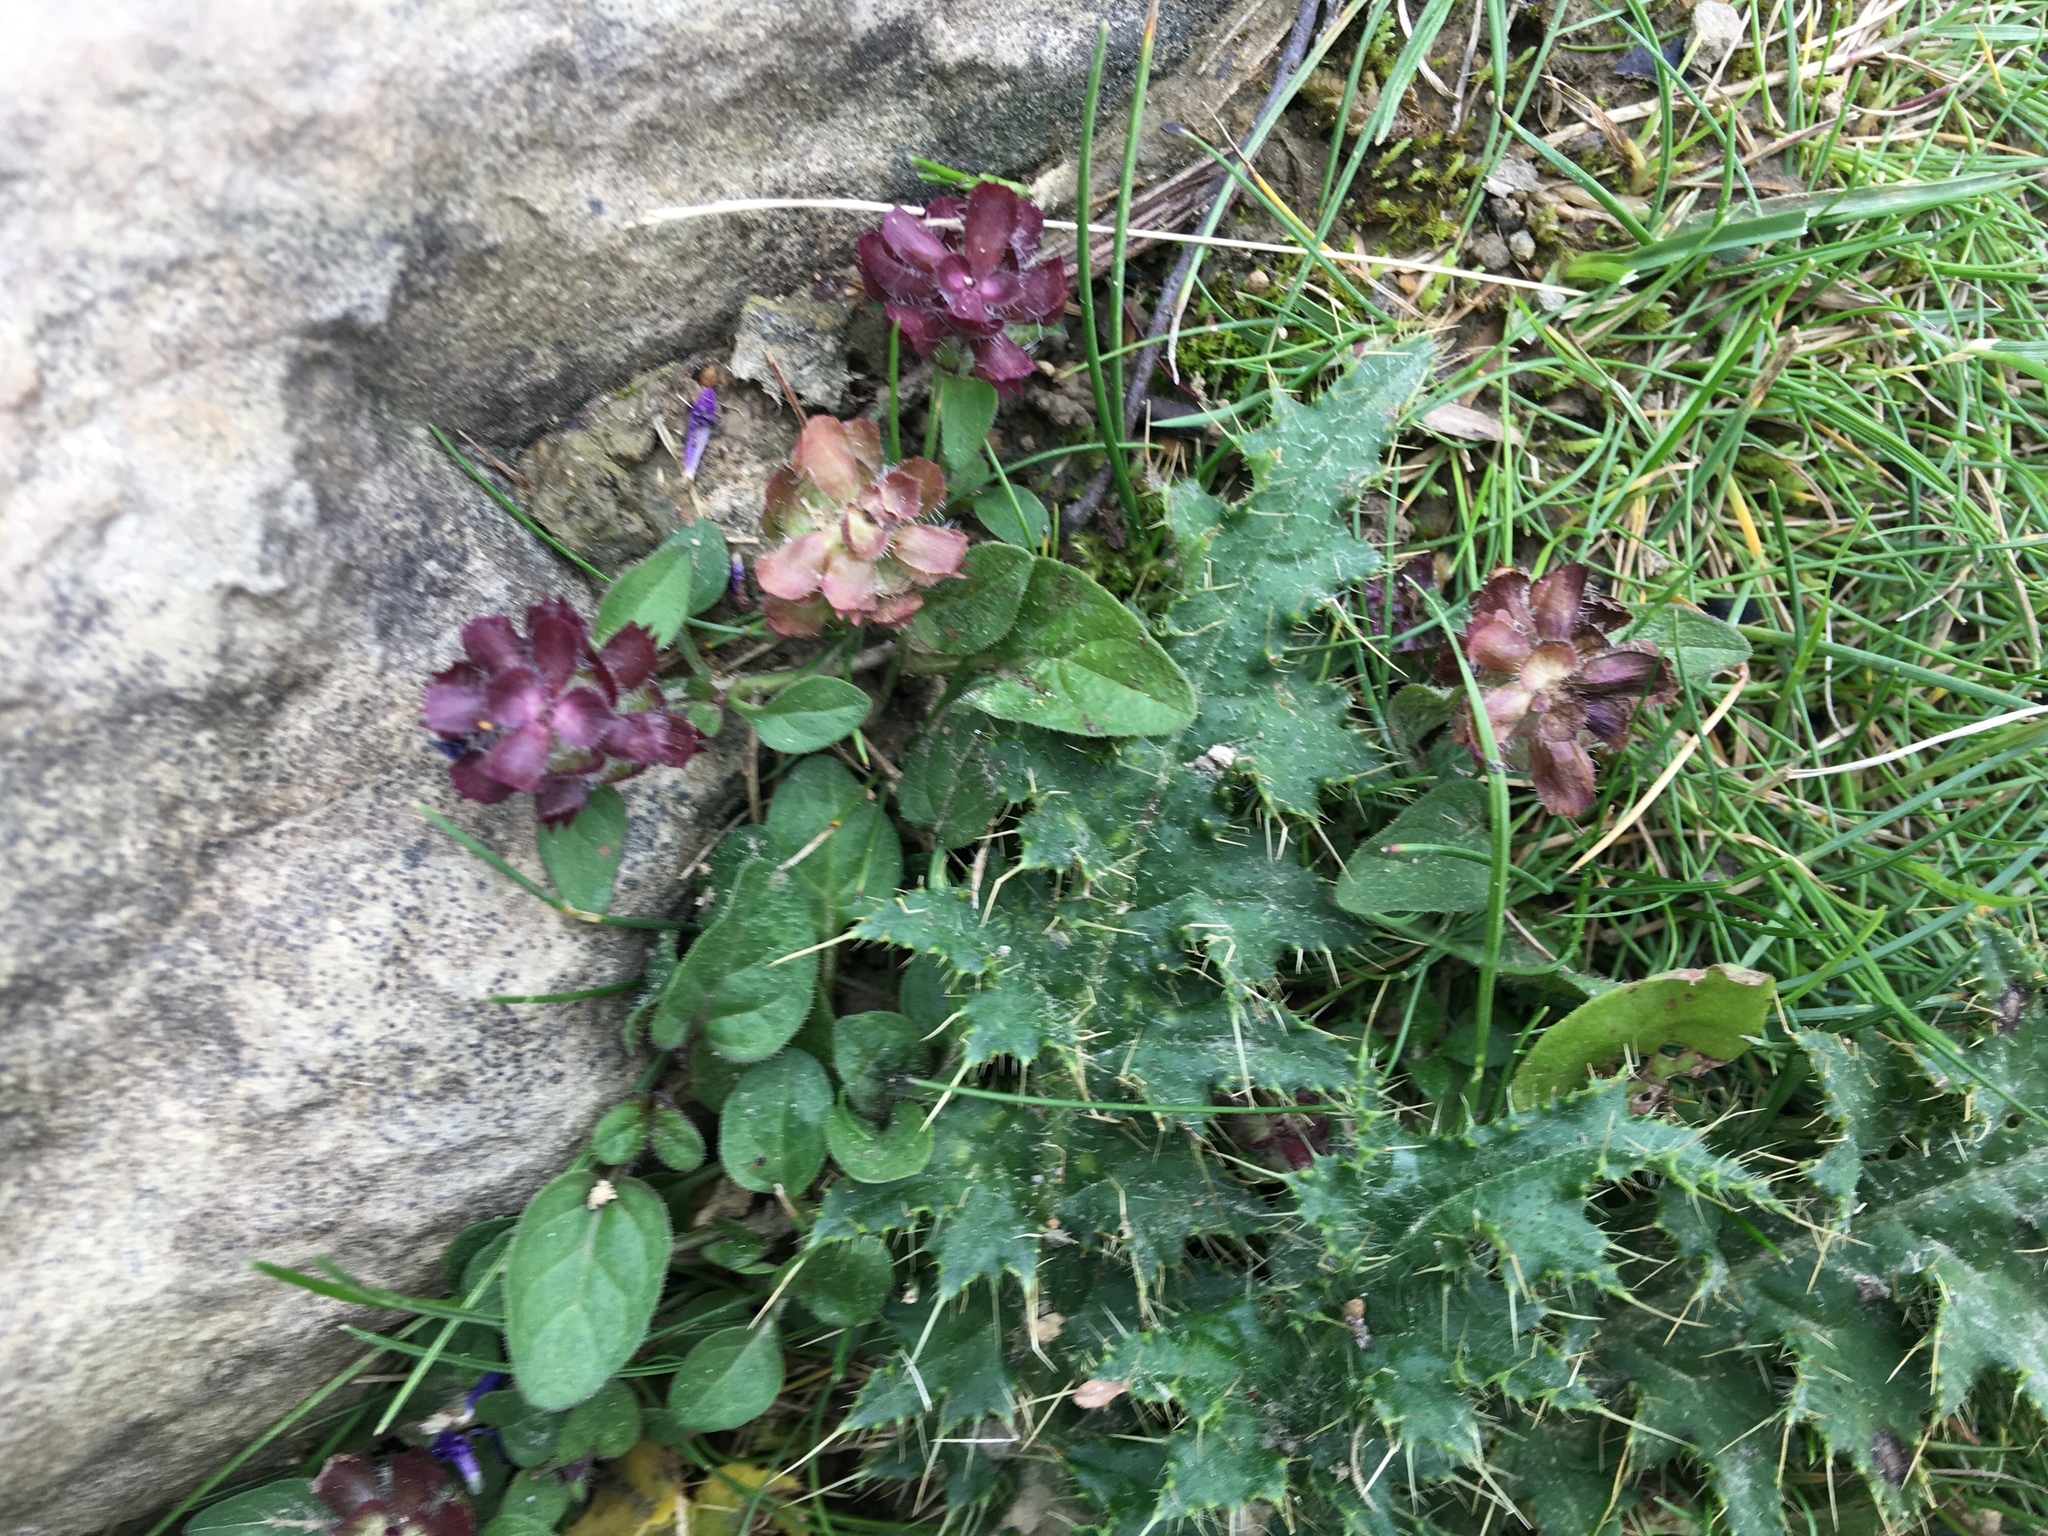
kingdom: Plantae
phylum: Tracheophyta
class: Magnoliopsida
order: Lamiales
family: Lamiaceae
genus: Prunella
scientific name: Prunella vulgaris
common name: Heal-all
